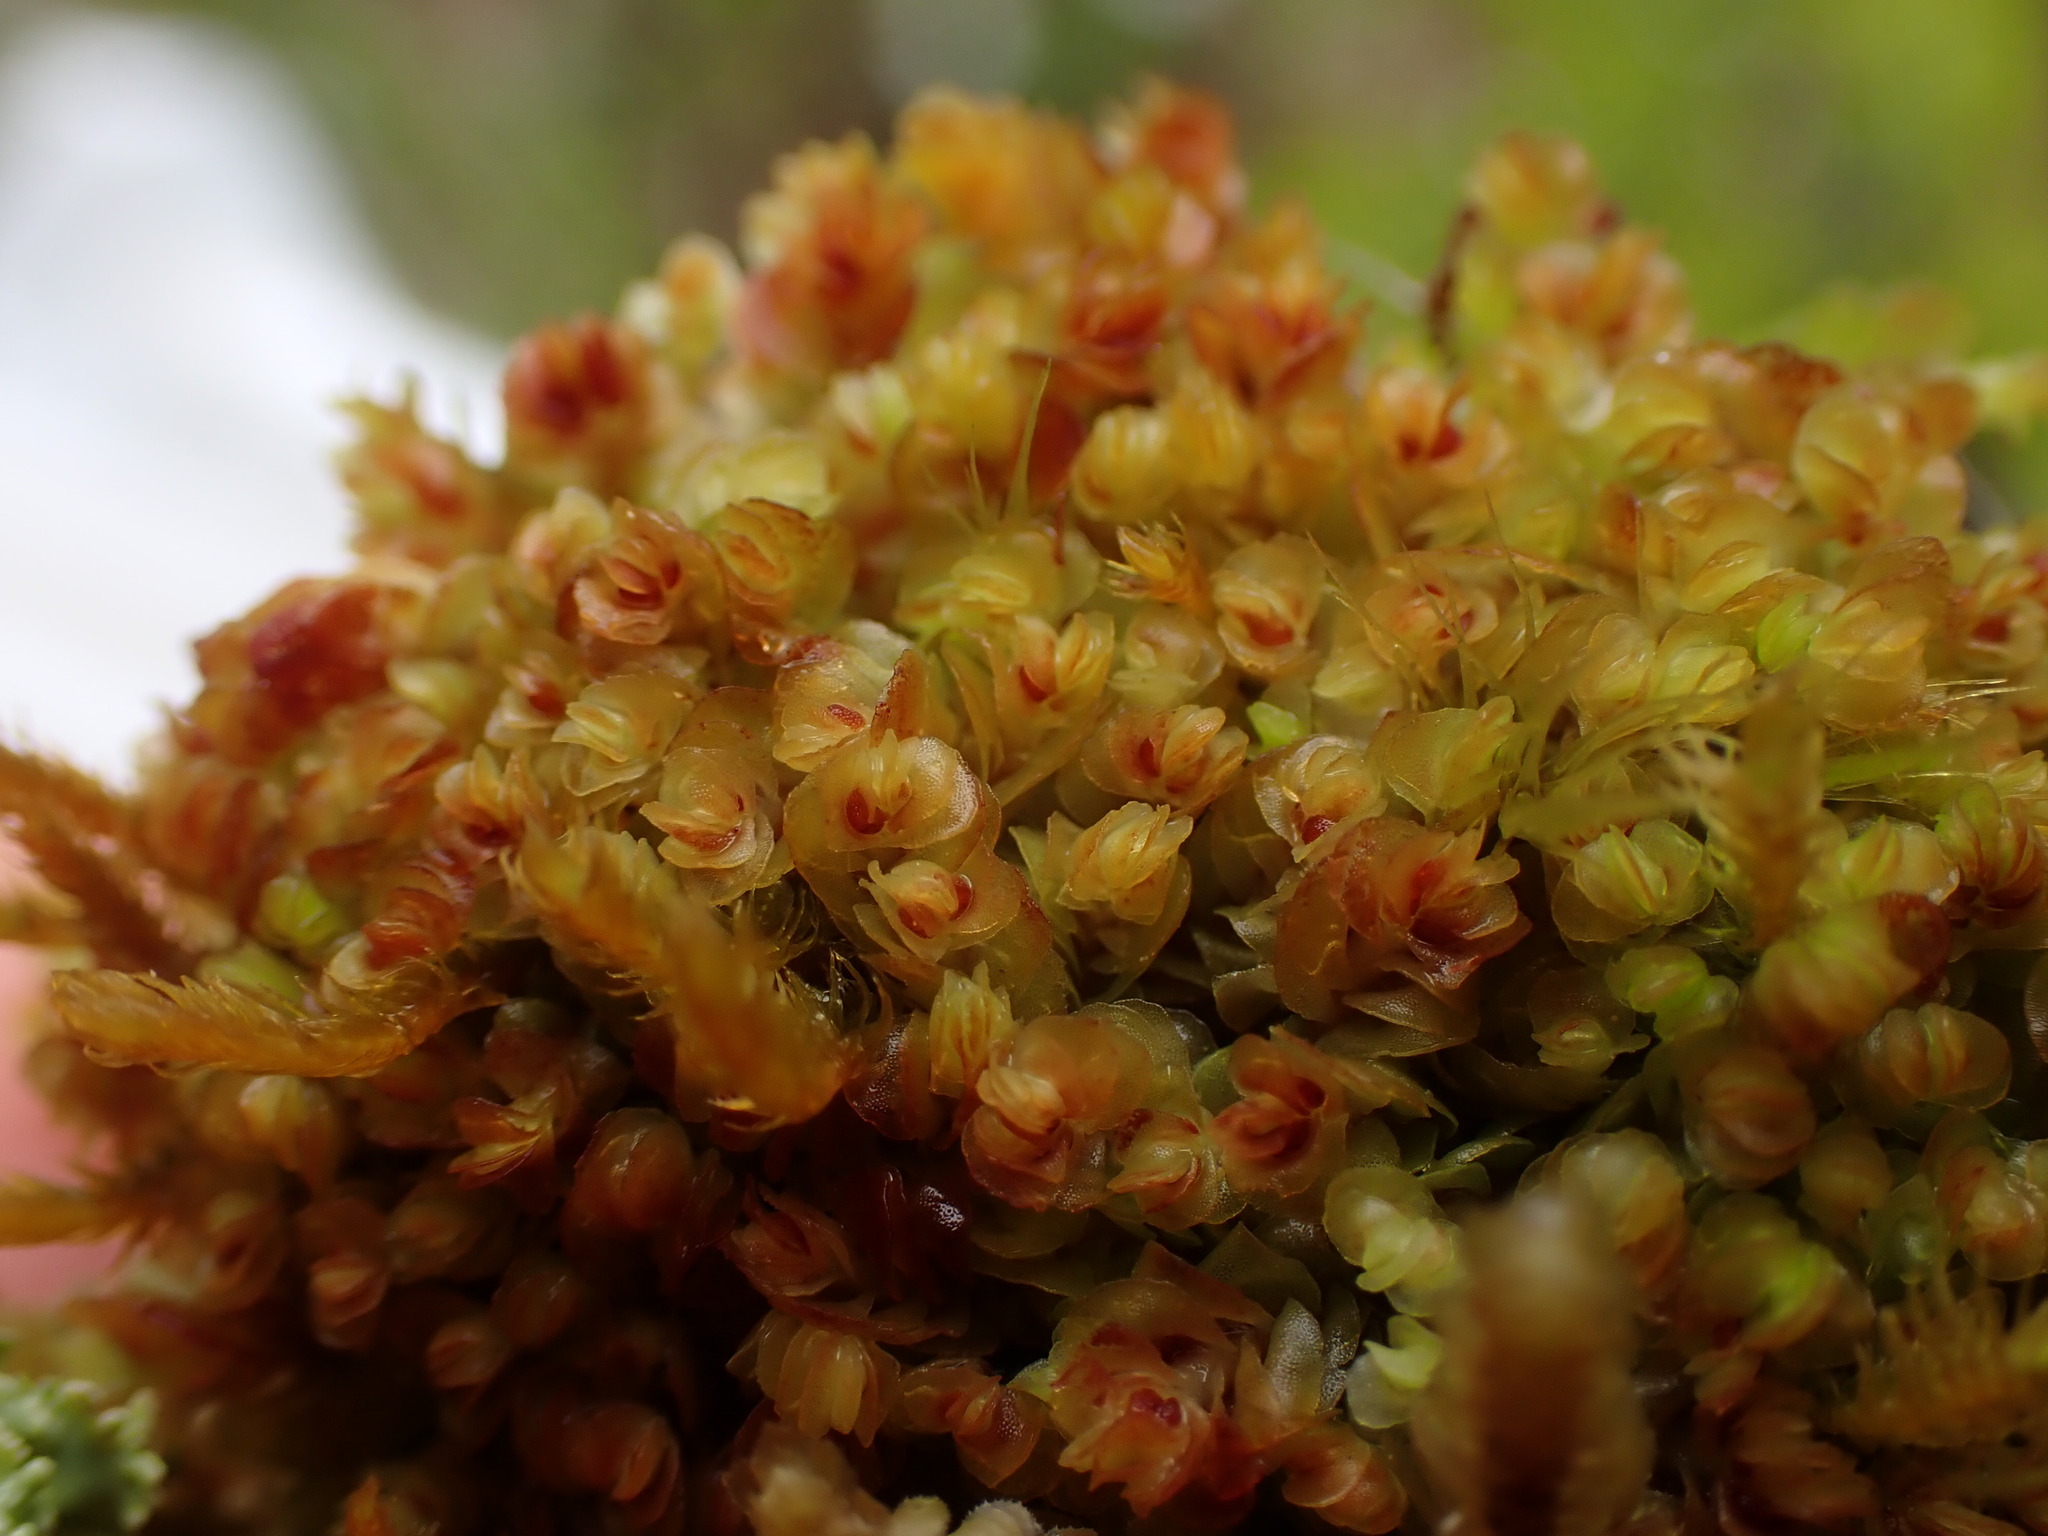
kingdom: Plantae
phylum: Marchantiophyta
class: Jungermanniopsida
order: Jungermanniales
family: Myliaceae
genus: Mylia
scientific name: Mylia taylorii
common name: Taylor s flapwort
